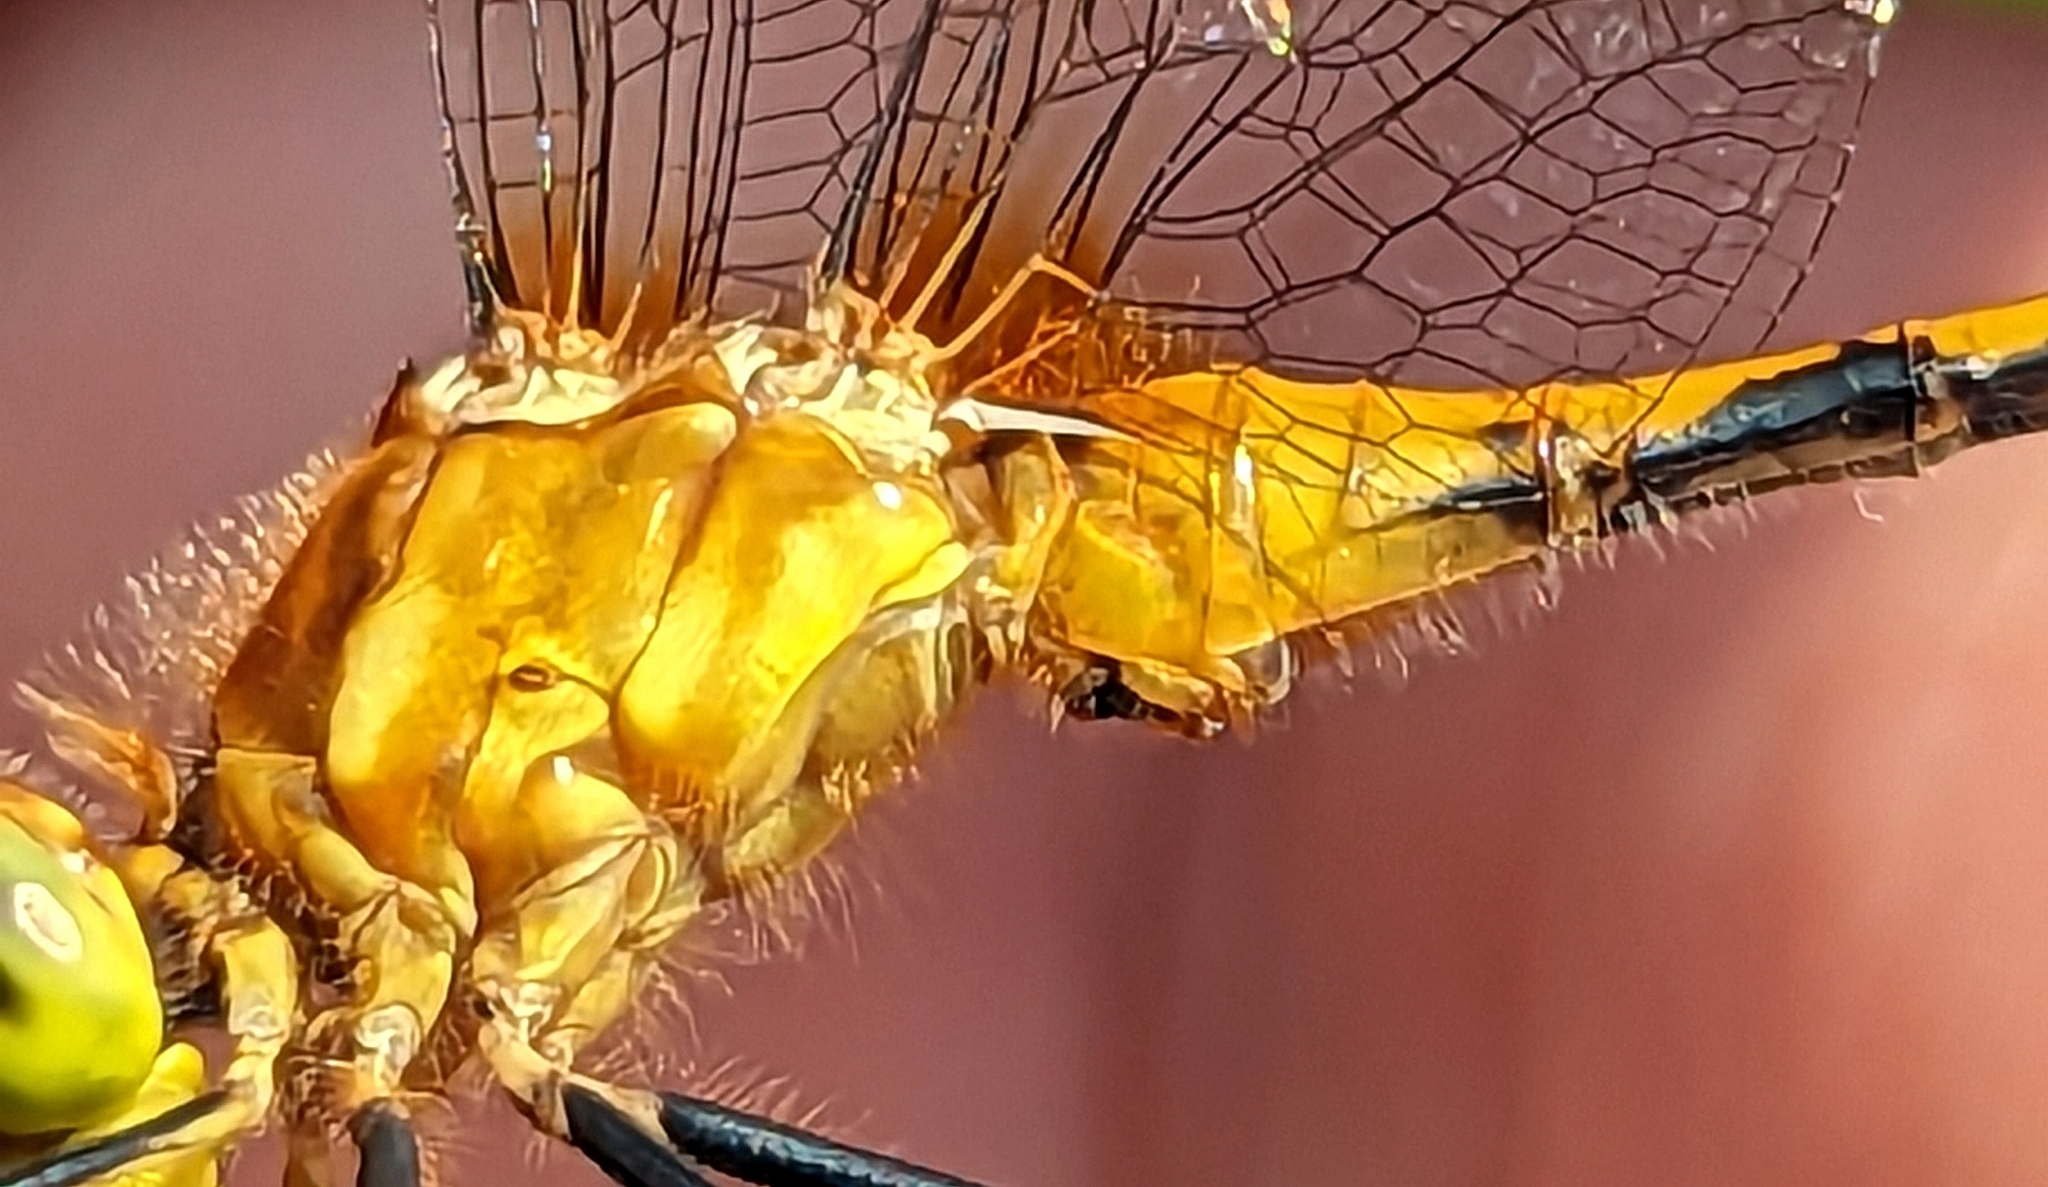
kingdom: Animalia
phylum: Arthropoda
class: Insecta
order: Odonata
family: Libellulidae
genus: Sympetrum
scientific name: Sympetrum obtrusum
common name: White-faced meadowhawk
